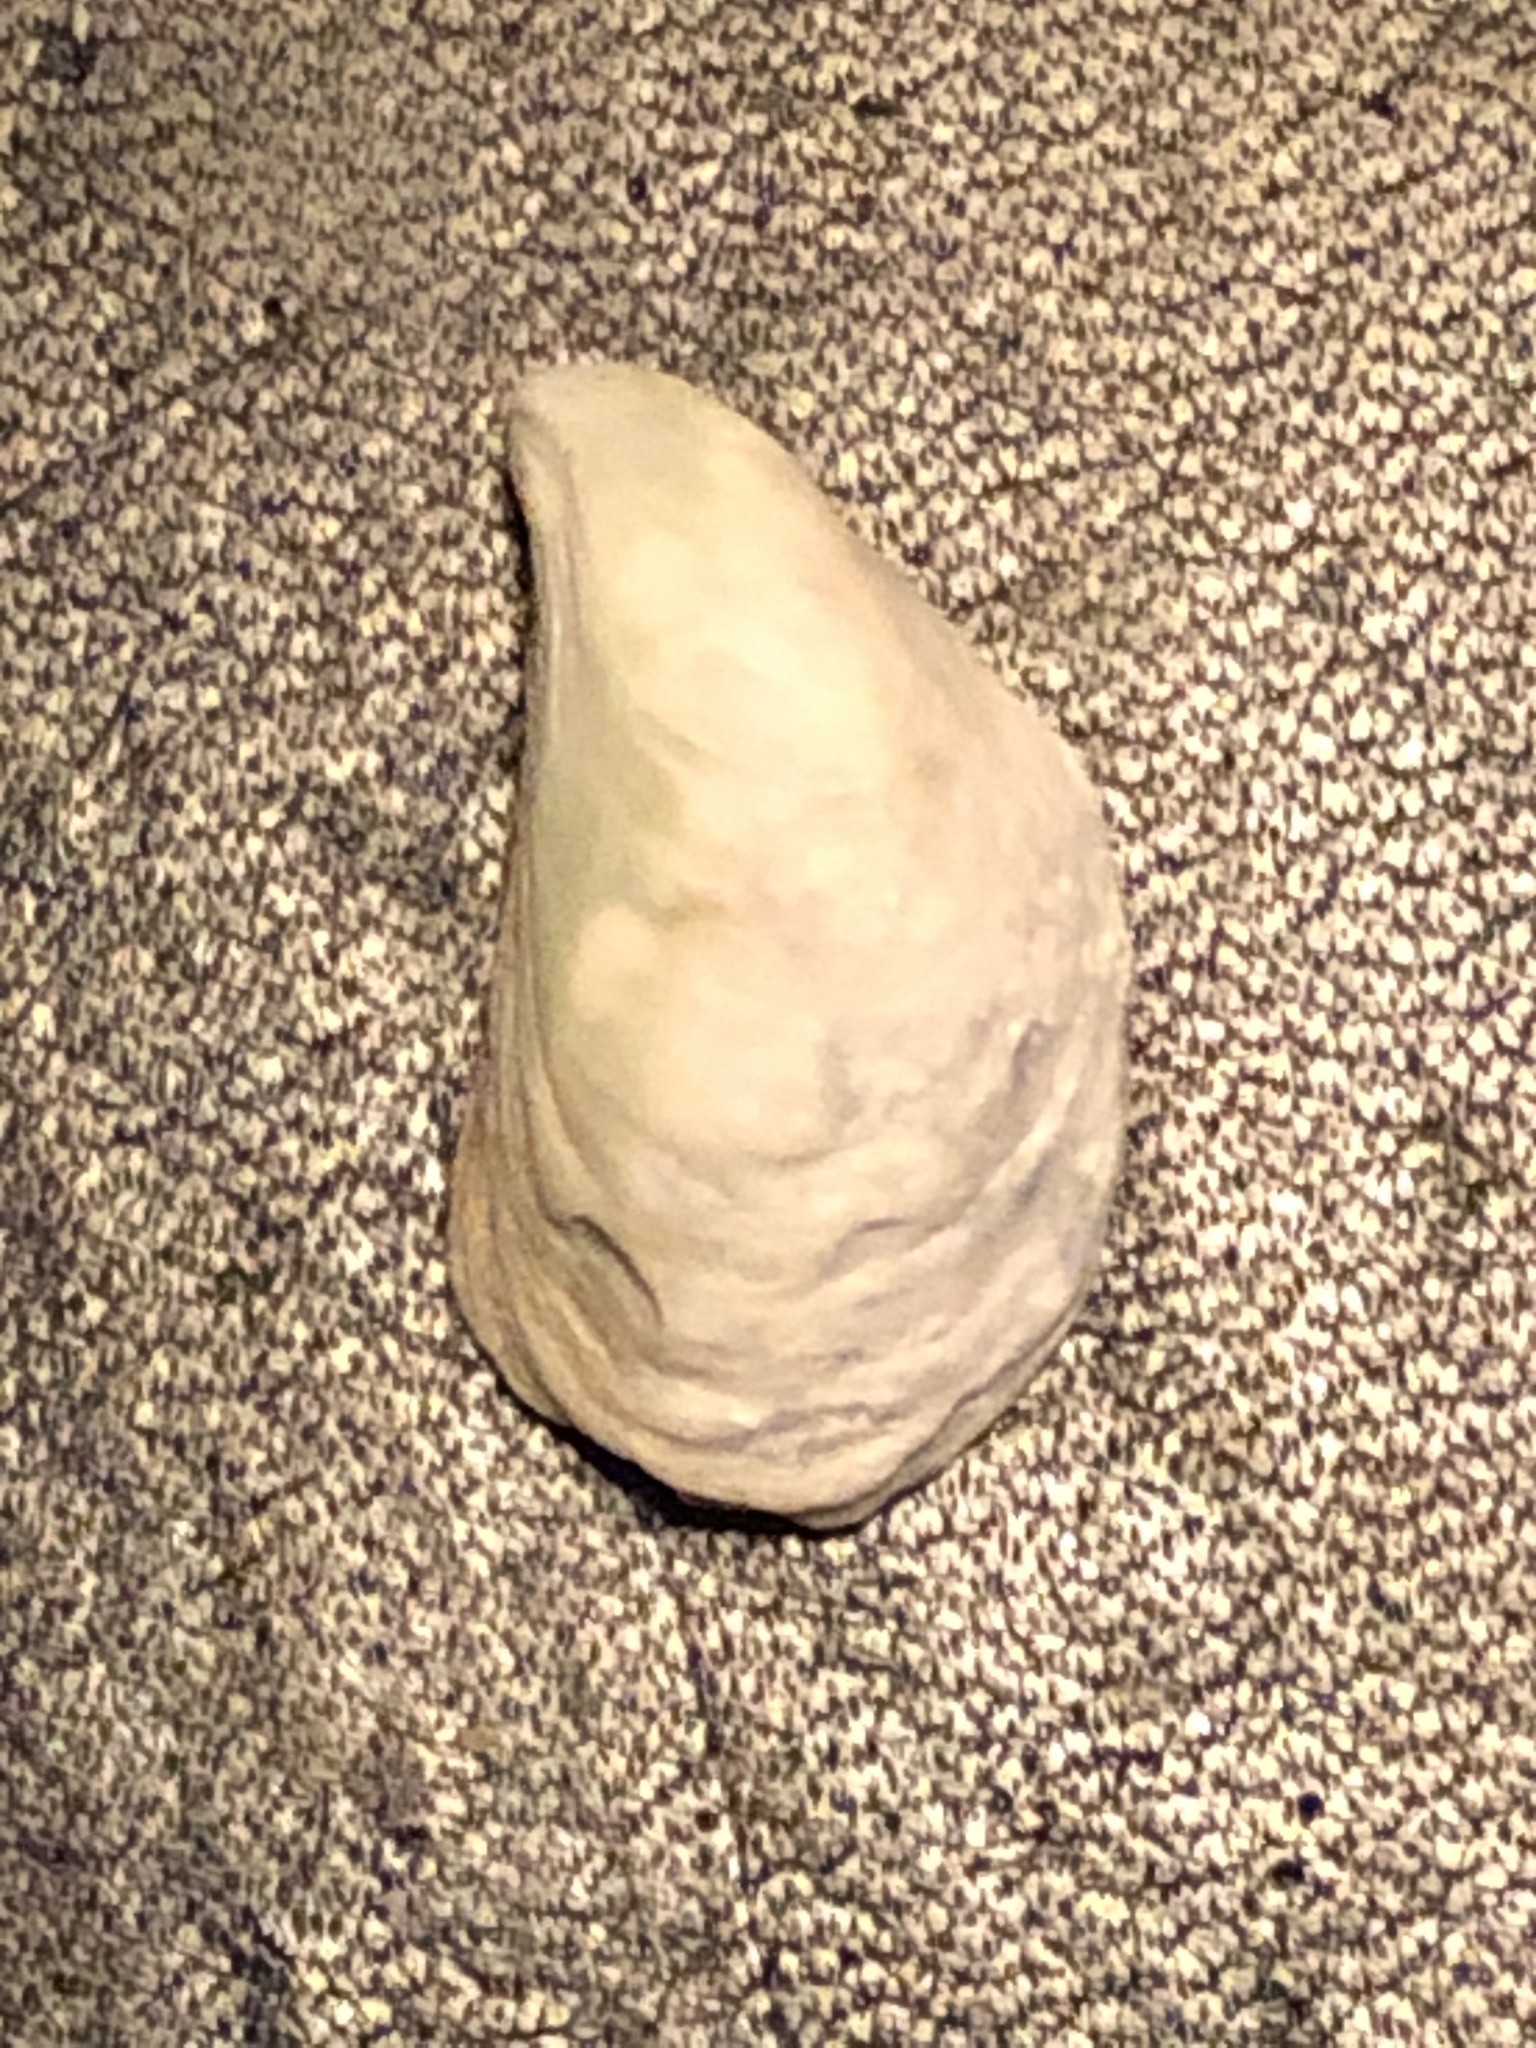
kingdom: Animalia
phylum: Mollusca
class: Bivalvia
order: Myida
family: Dreissenidae
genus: Dreissena
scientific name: Dreissena bugensis
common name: Quagga mussel
